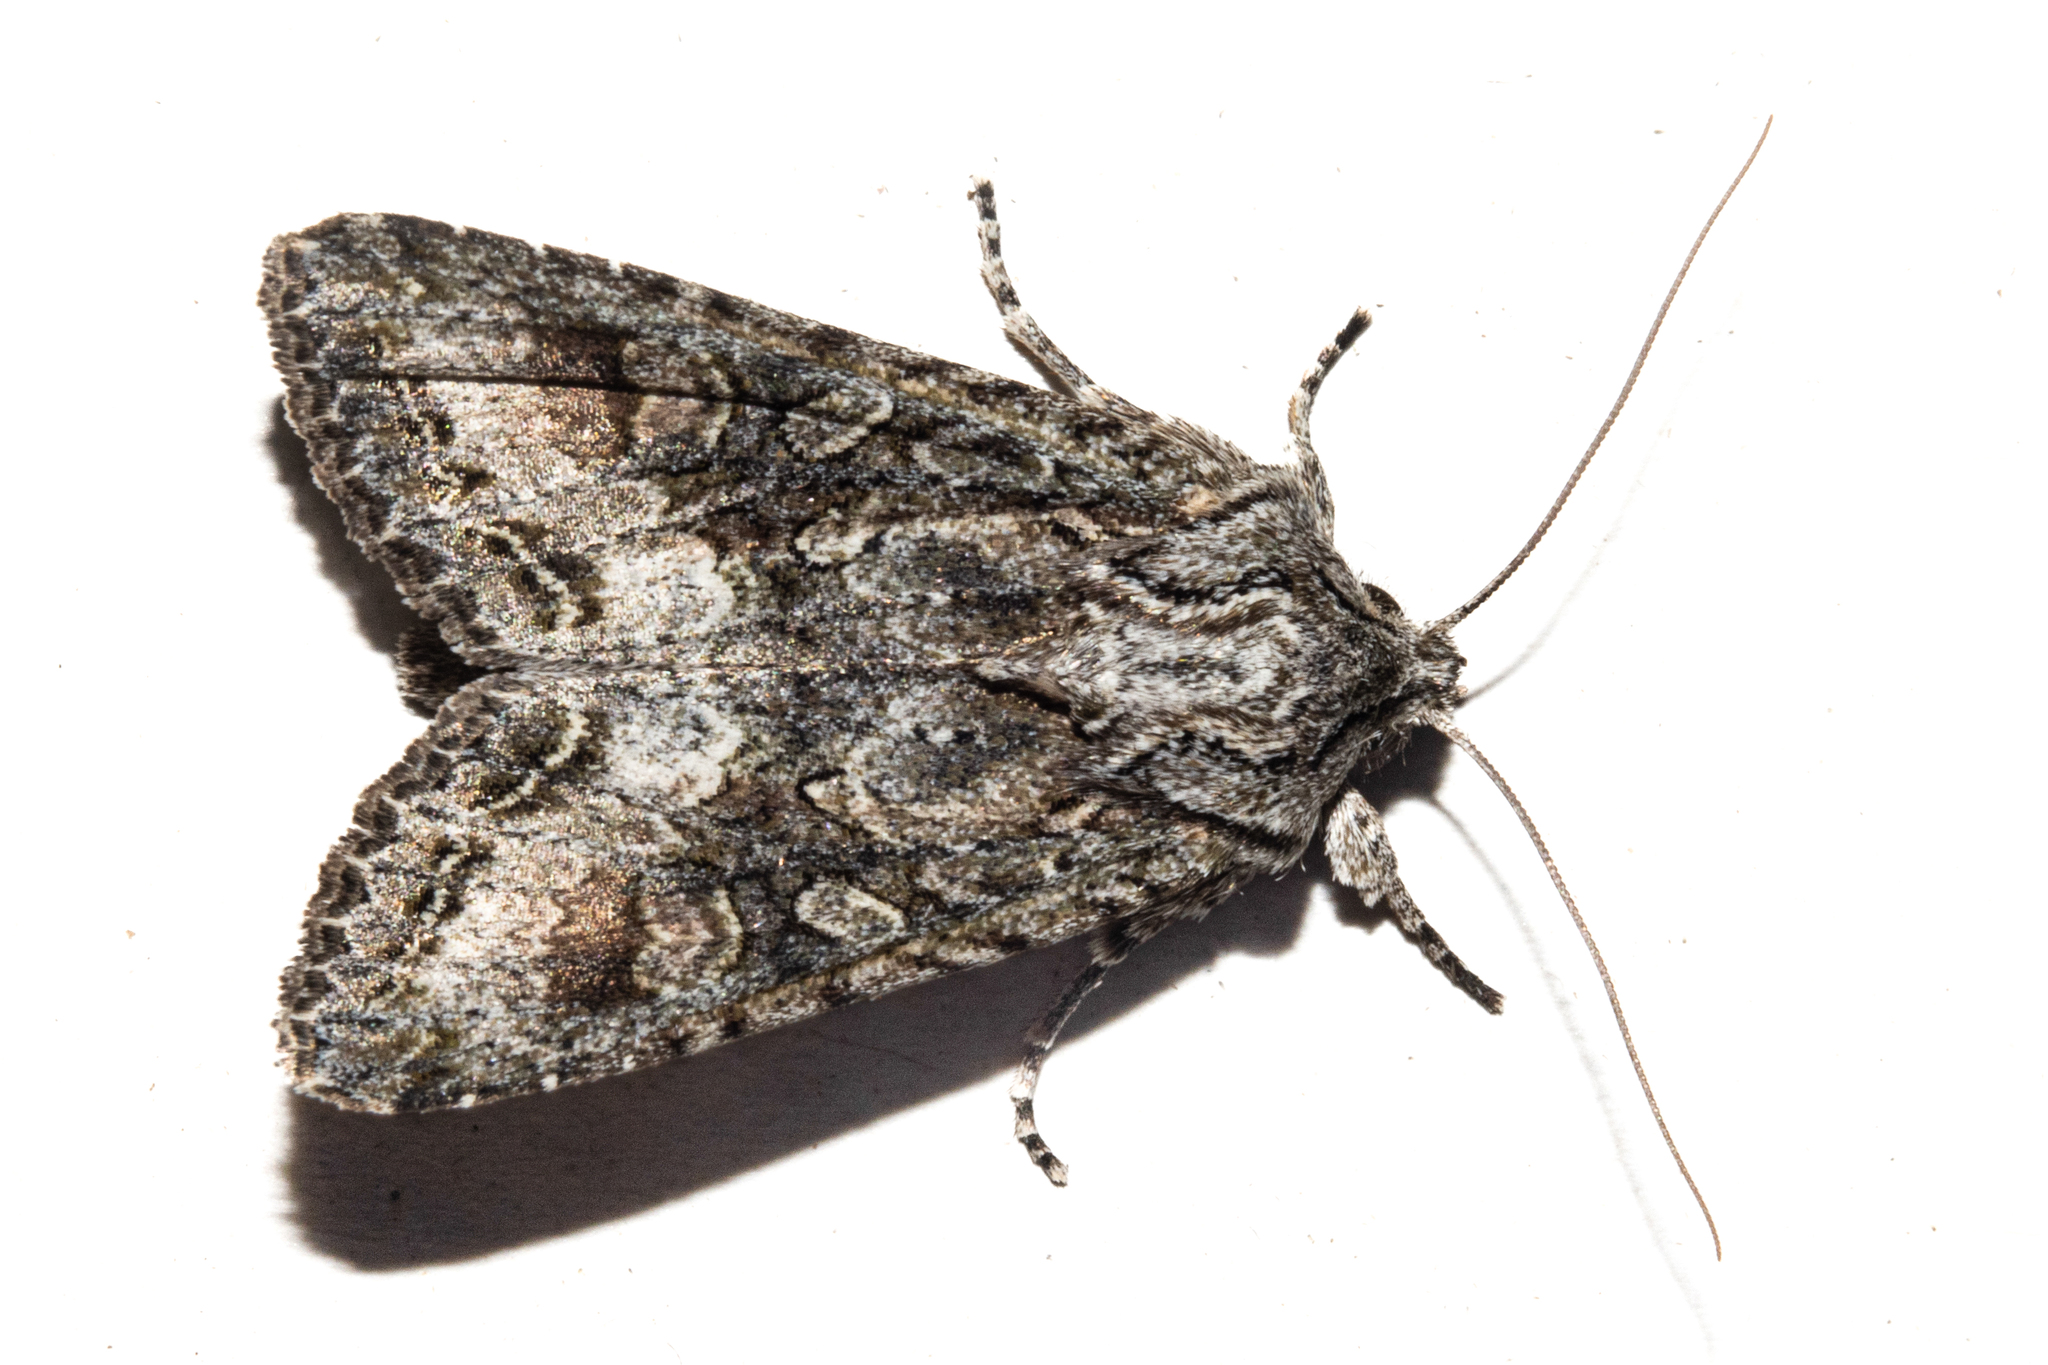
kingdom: Animalia
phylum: Arthropoda
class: Insecta
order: Lepidoptera
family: Noctuidae
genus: Ichneutica
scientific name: Ichneutica mutans
